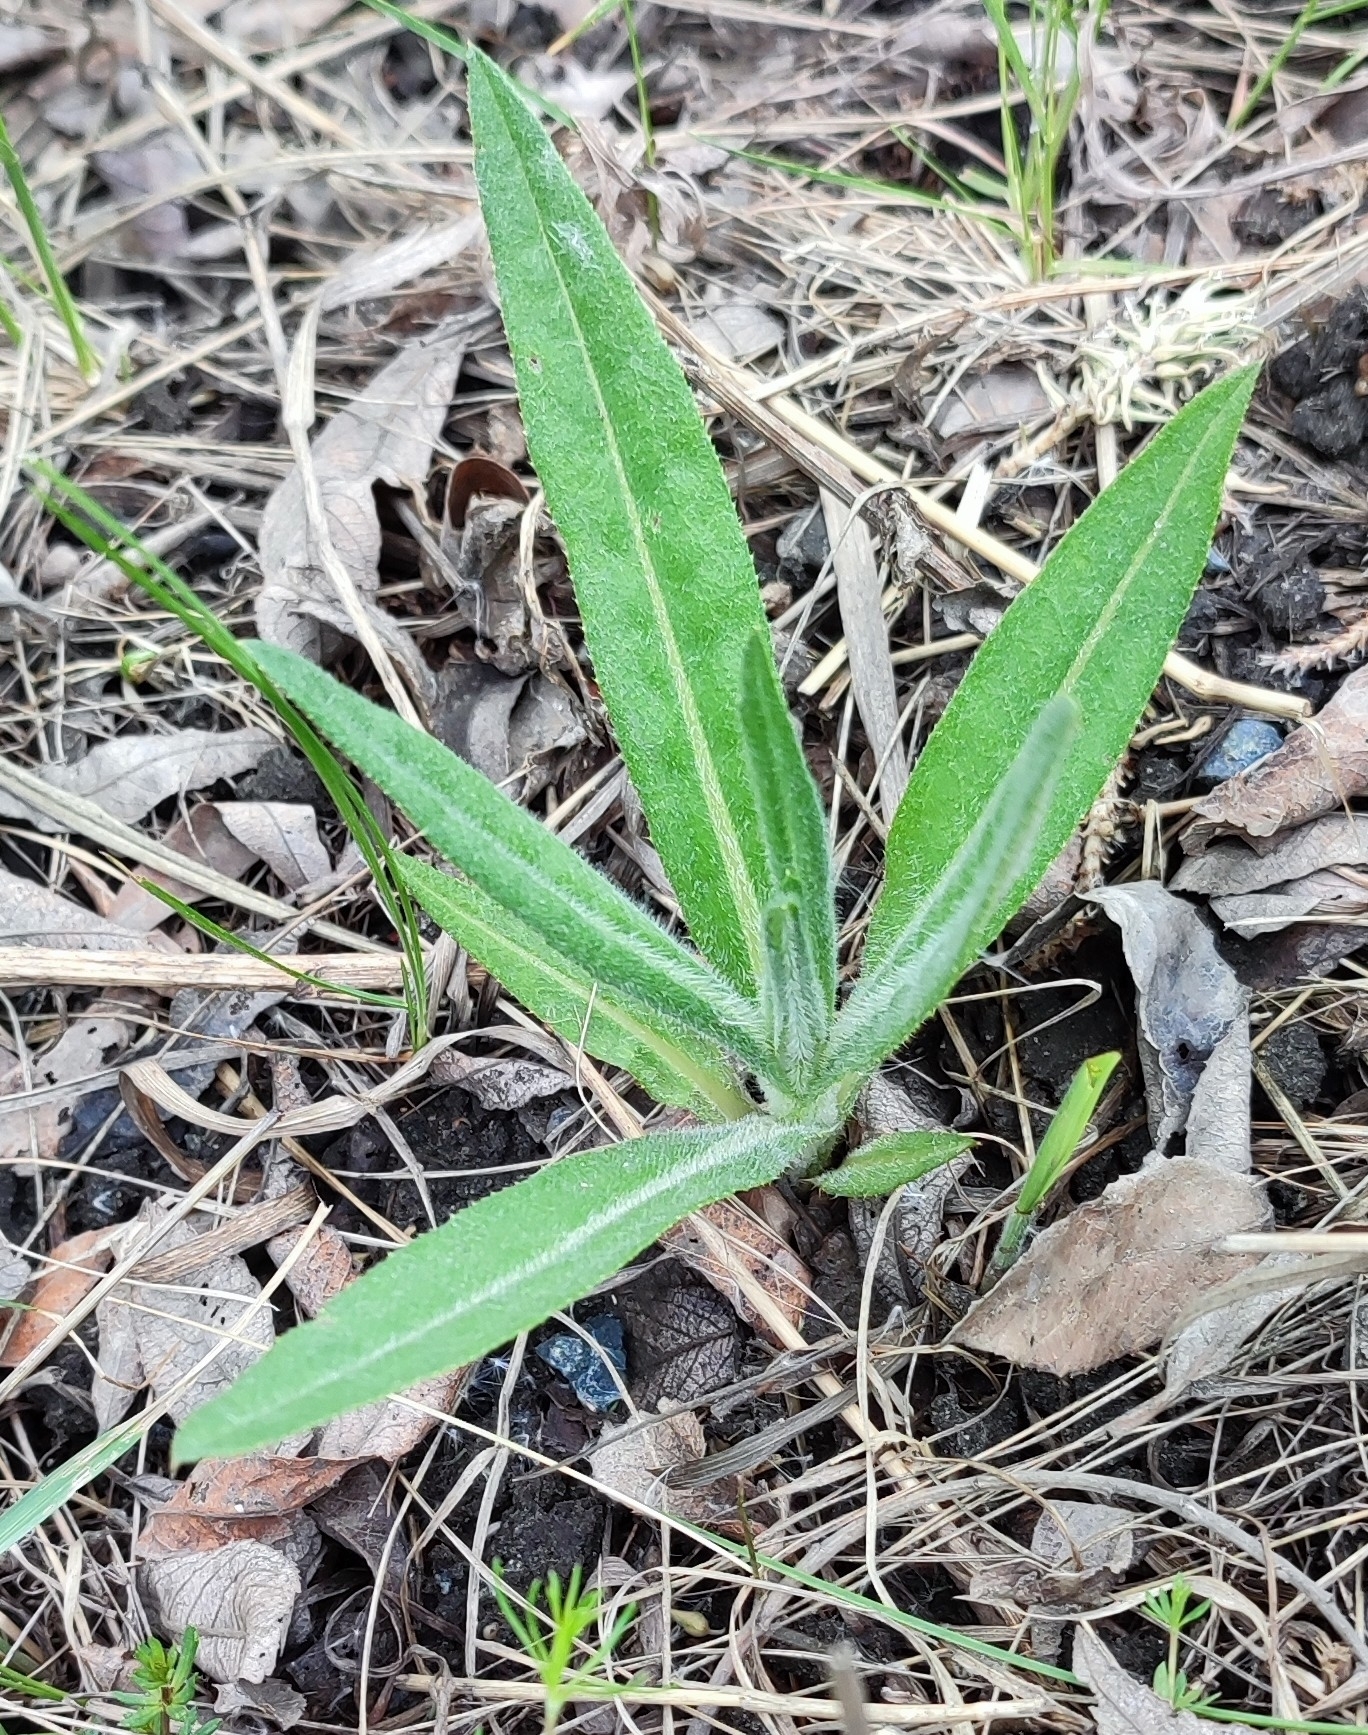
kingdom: Plantae
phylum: Tracheophyta
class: Magnoliopsida
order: Asterales
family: Asteraceae
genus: Cirsium
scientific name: Cirsium arvense
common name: Creeping thistle
